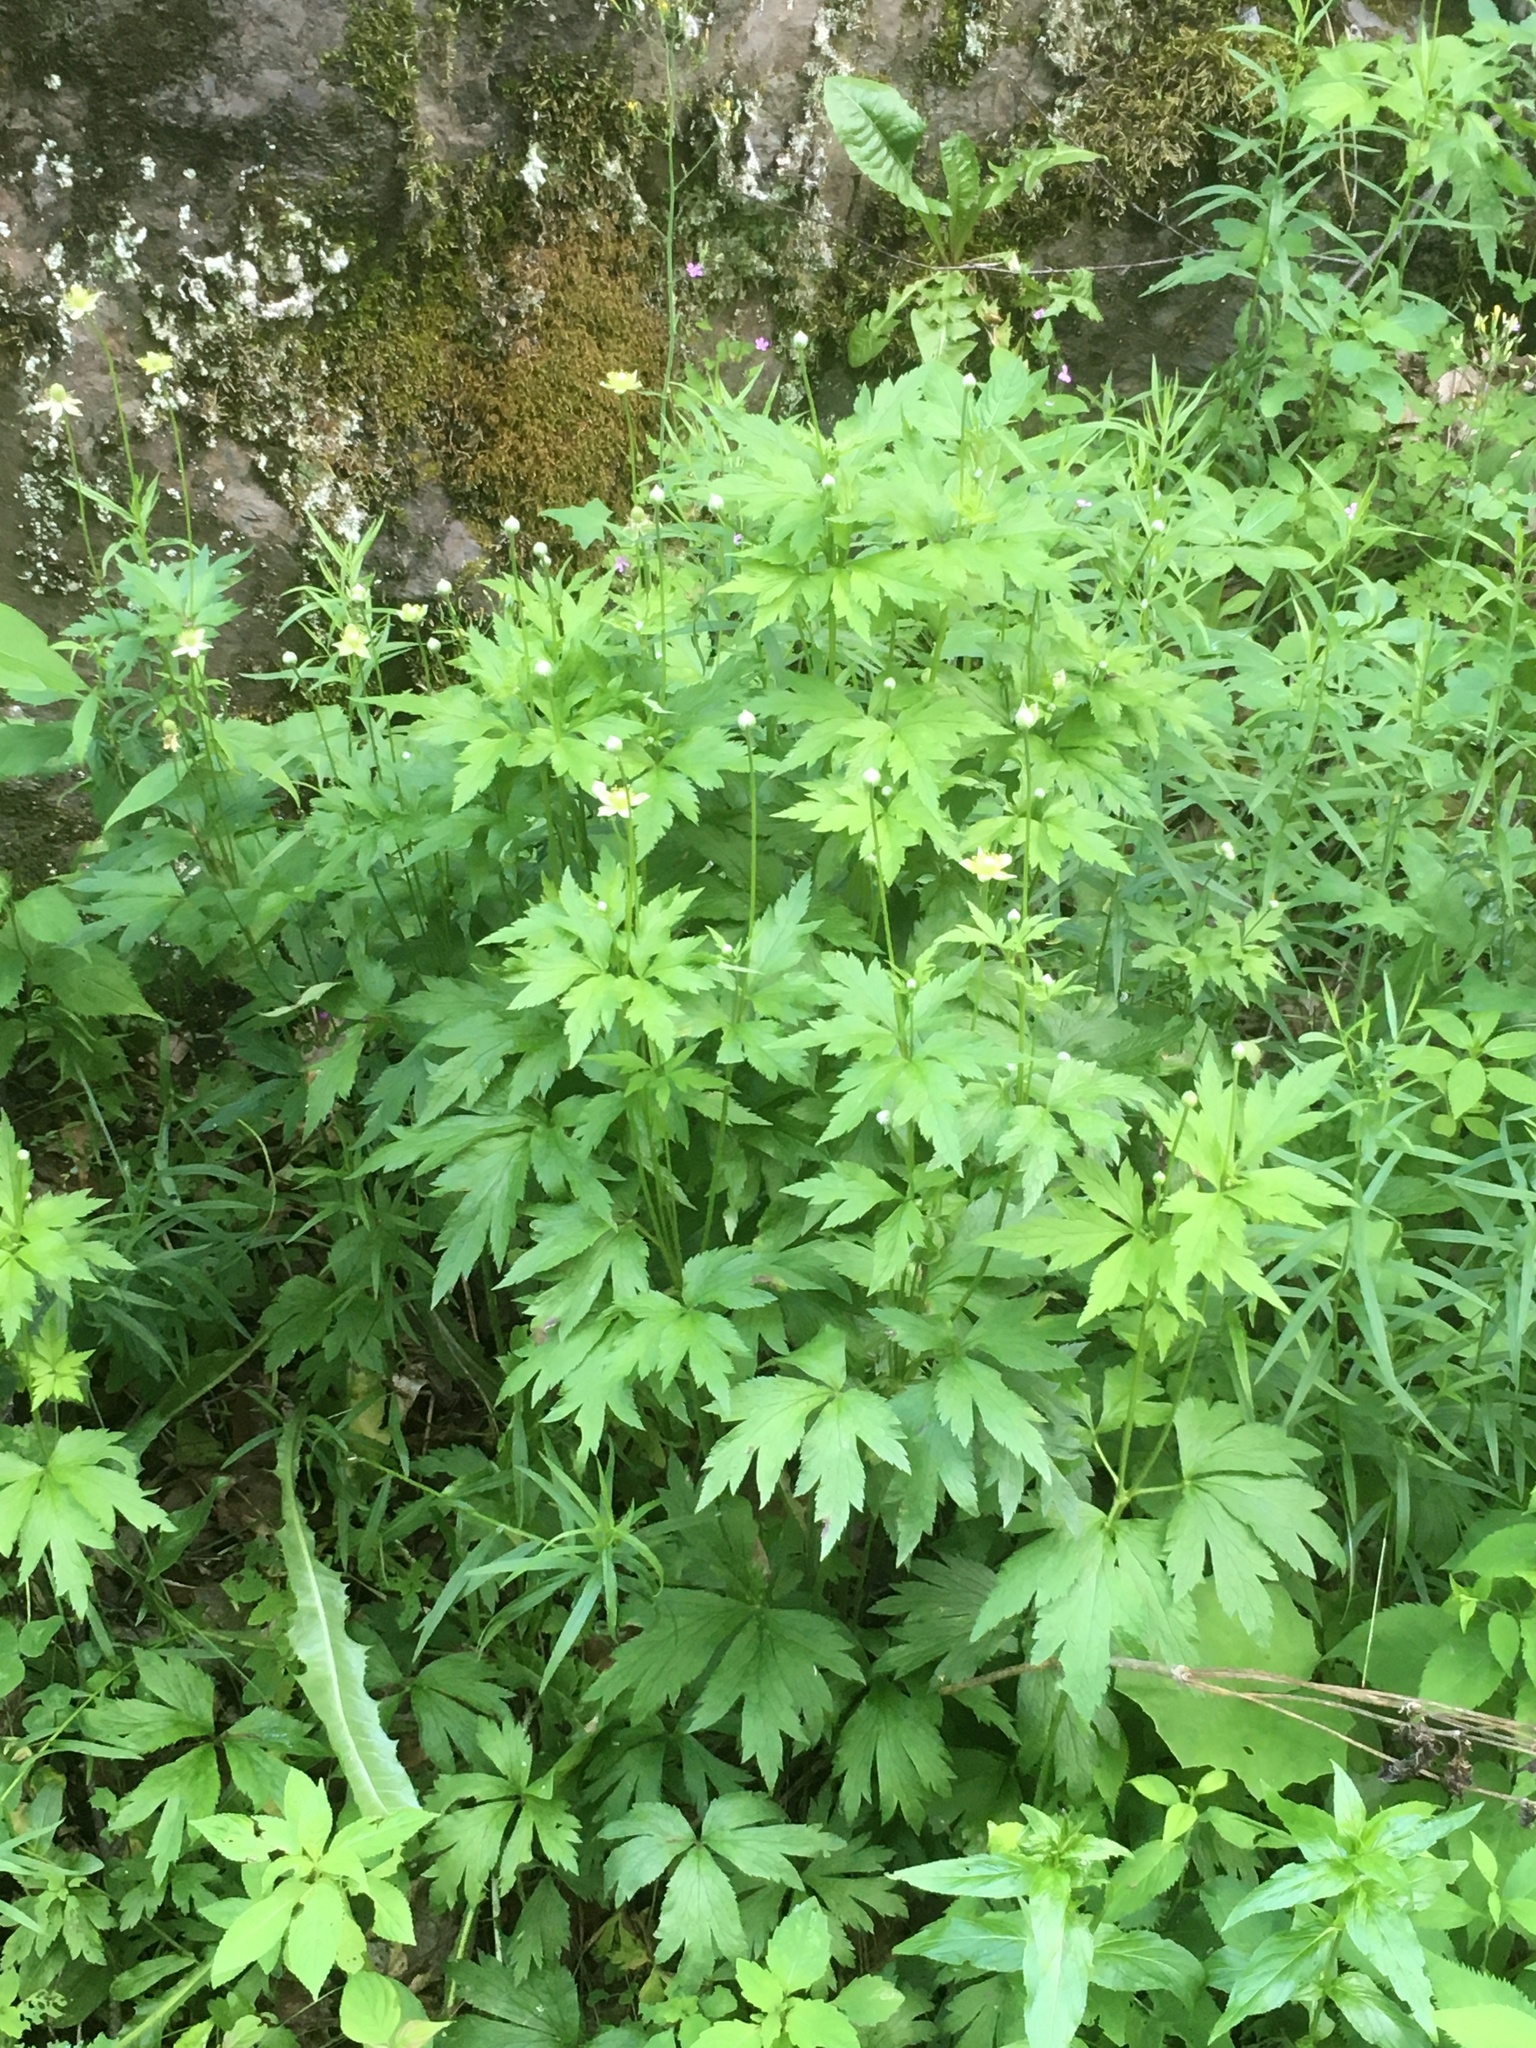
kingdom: Plantae
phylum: Tracheophyta
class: Magnoliopsida
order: Ranunculales
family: Ranunculaceae
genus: Anemone
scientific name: Anemone virginiana
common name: Tall anemone
